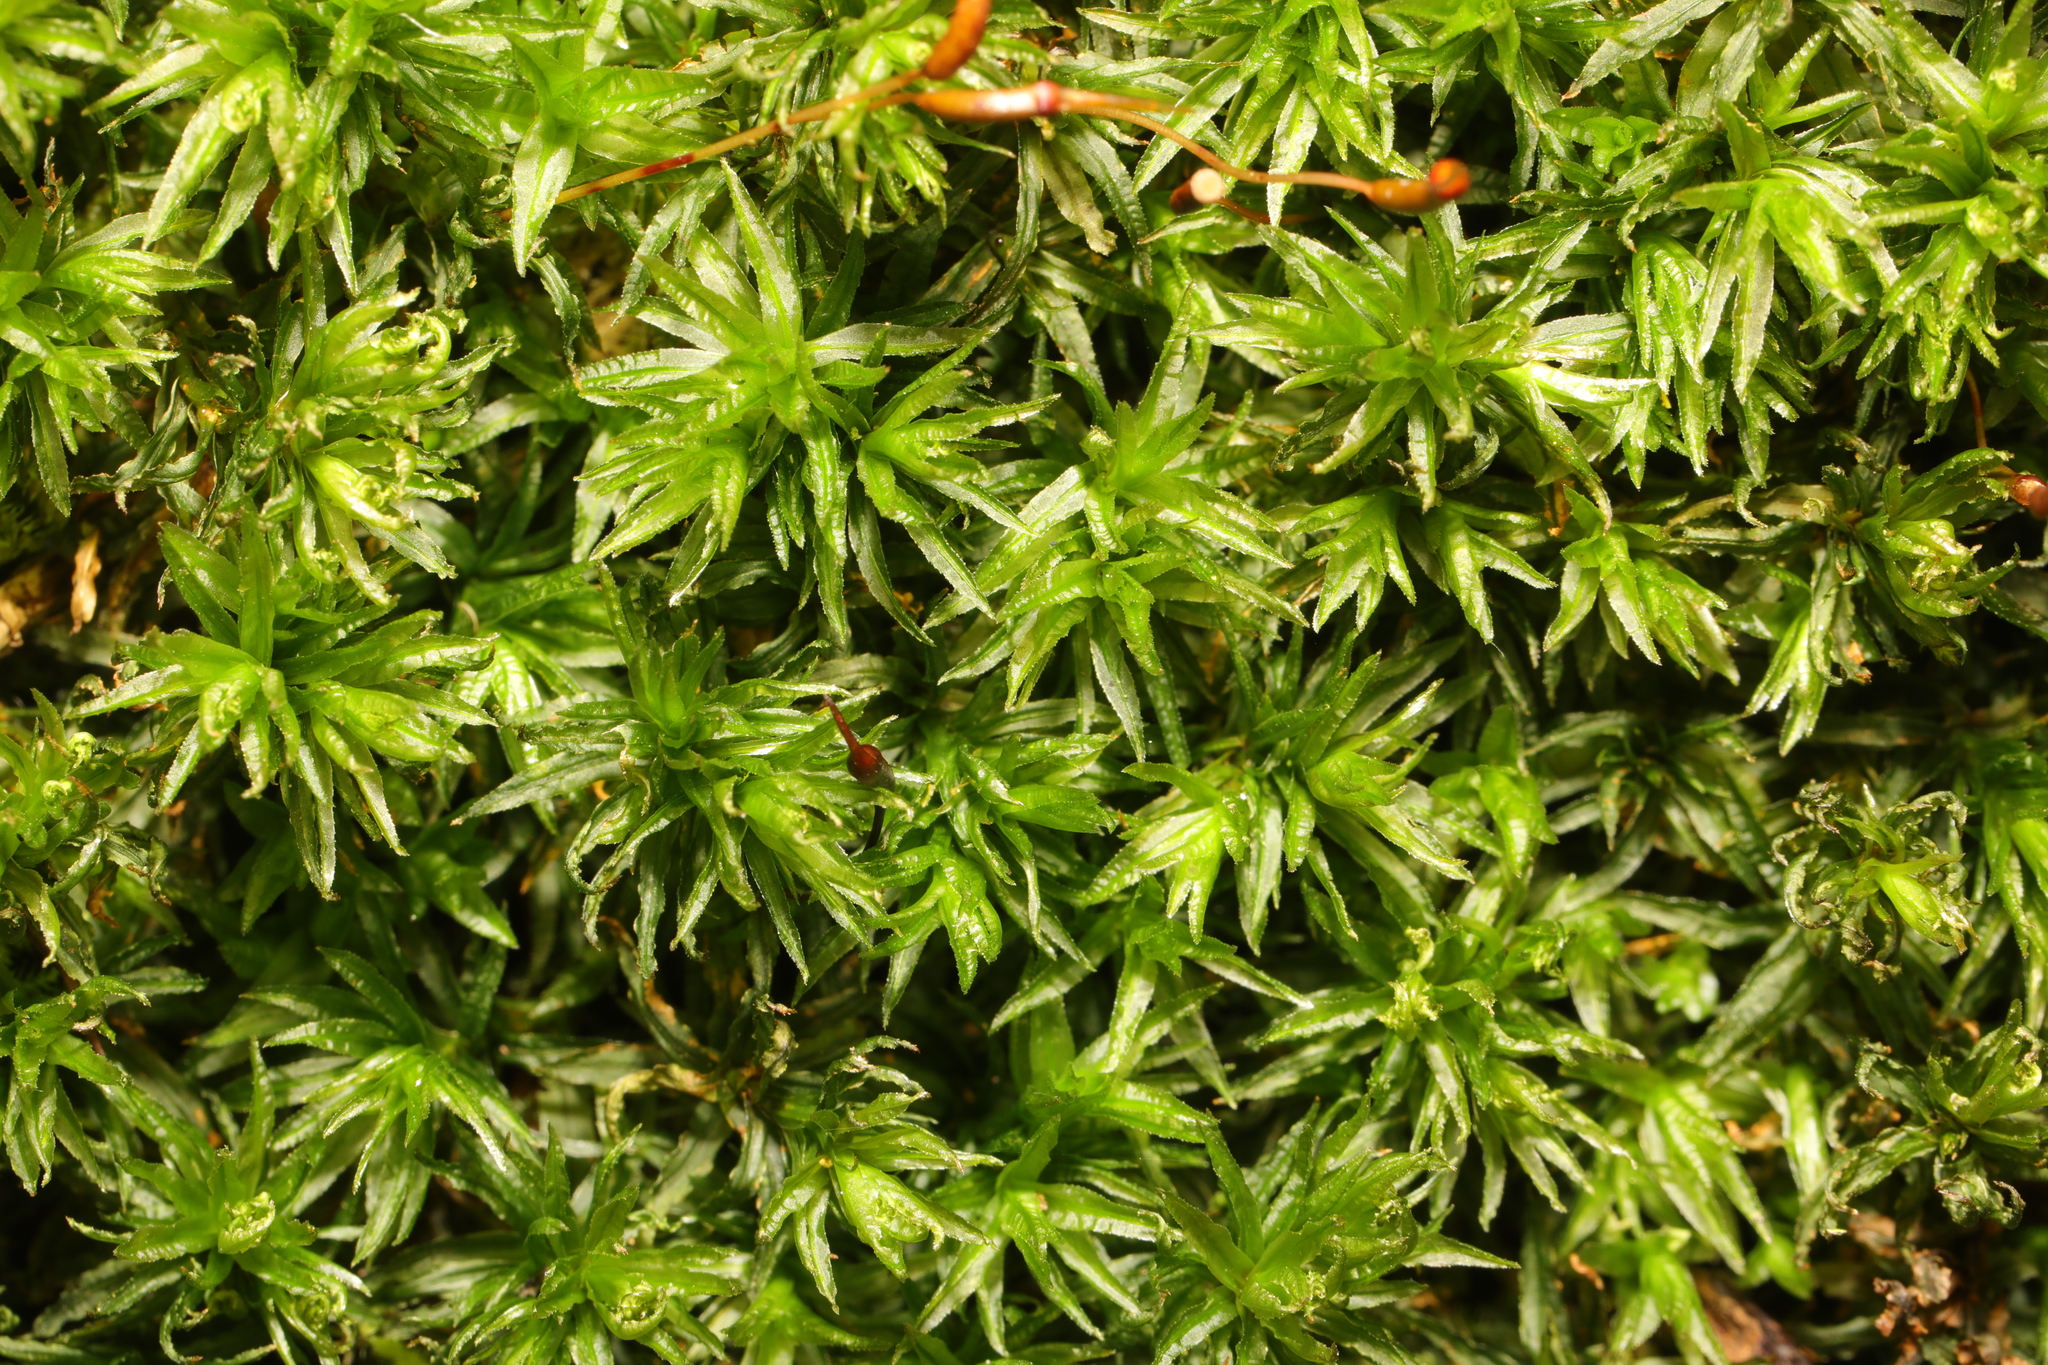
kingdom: Plantae
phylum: Bryophyta
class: Polytrichopsida
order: Polytrichales
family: Polytrichaceae
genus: Atrichum
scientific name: Atrichum undulatum
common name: Common smoothcap
